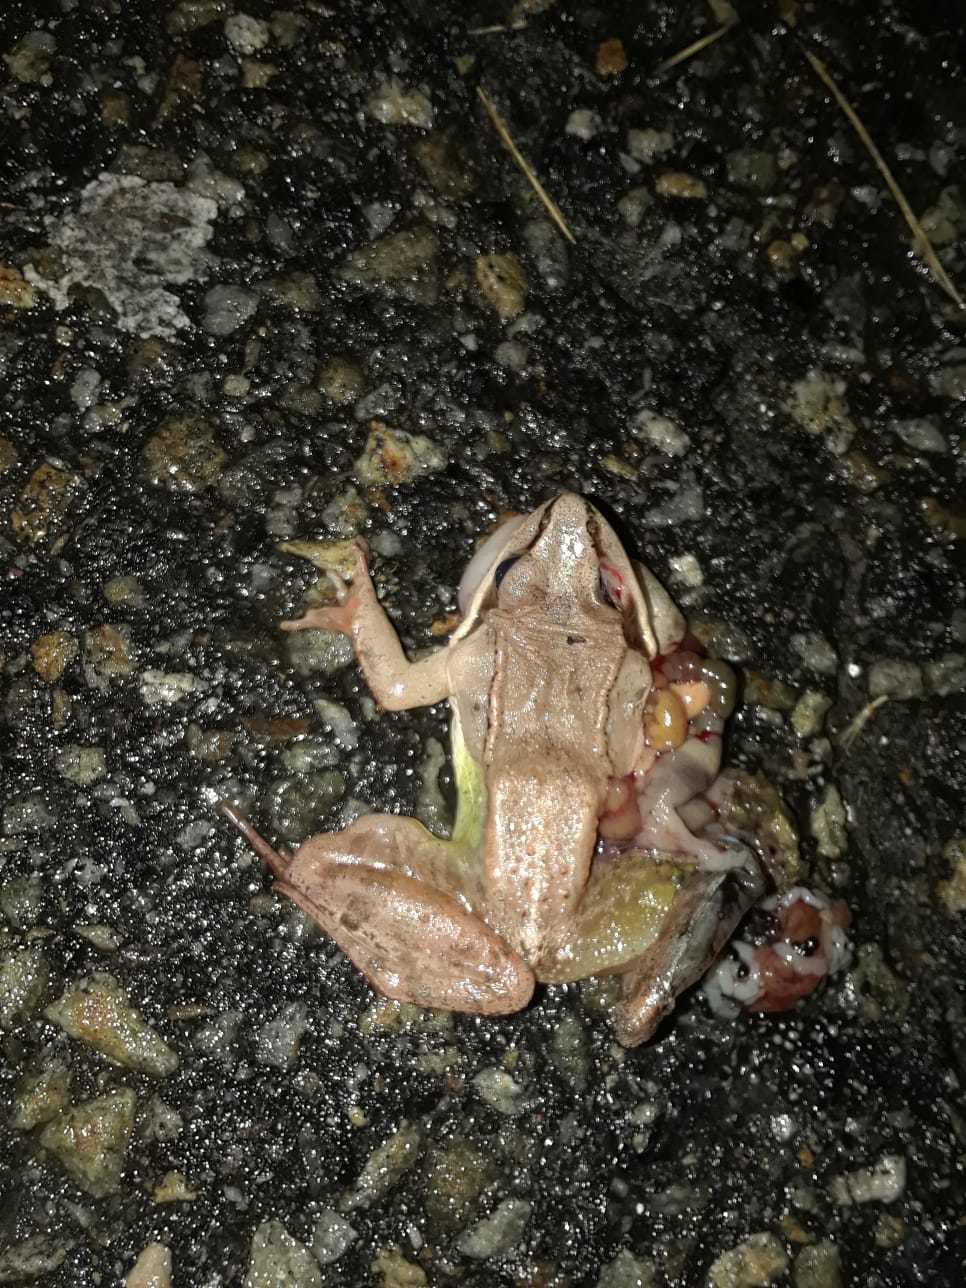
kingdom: Animalia
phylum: Chordata
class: Amphibia
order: Anura
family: Ranidae
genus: Lithobates
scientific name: Lithobates sylvaticus
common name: Wood frog
